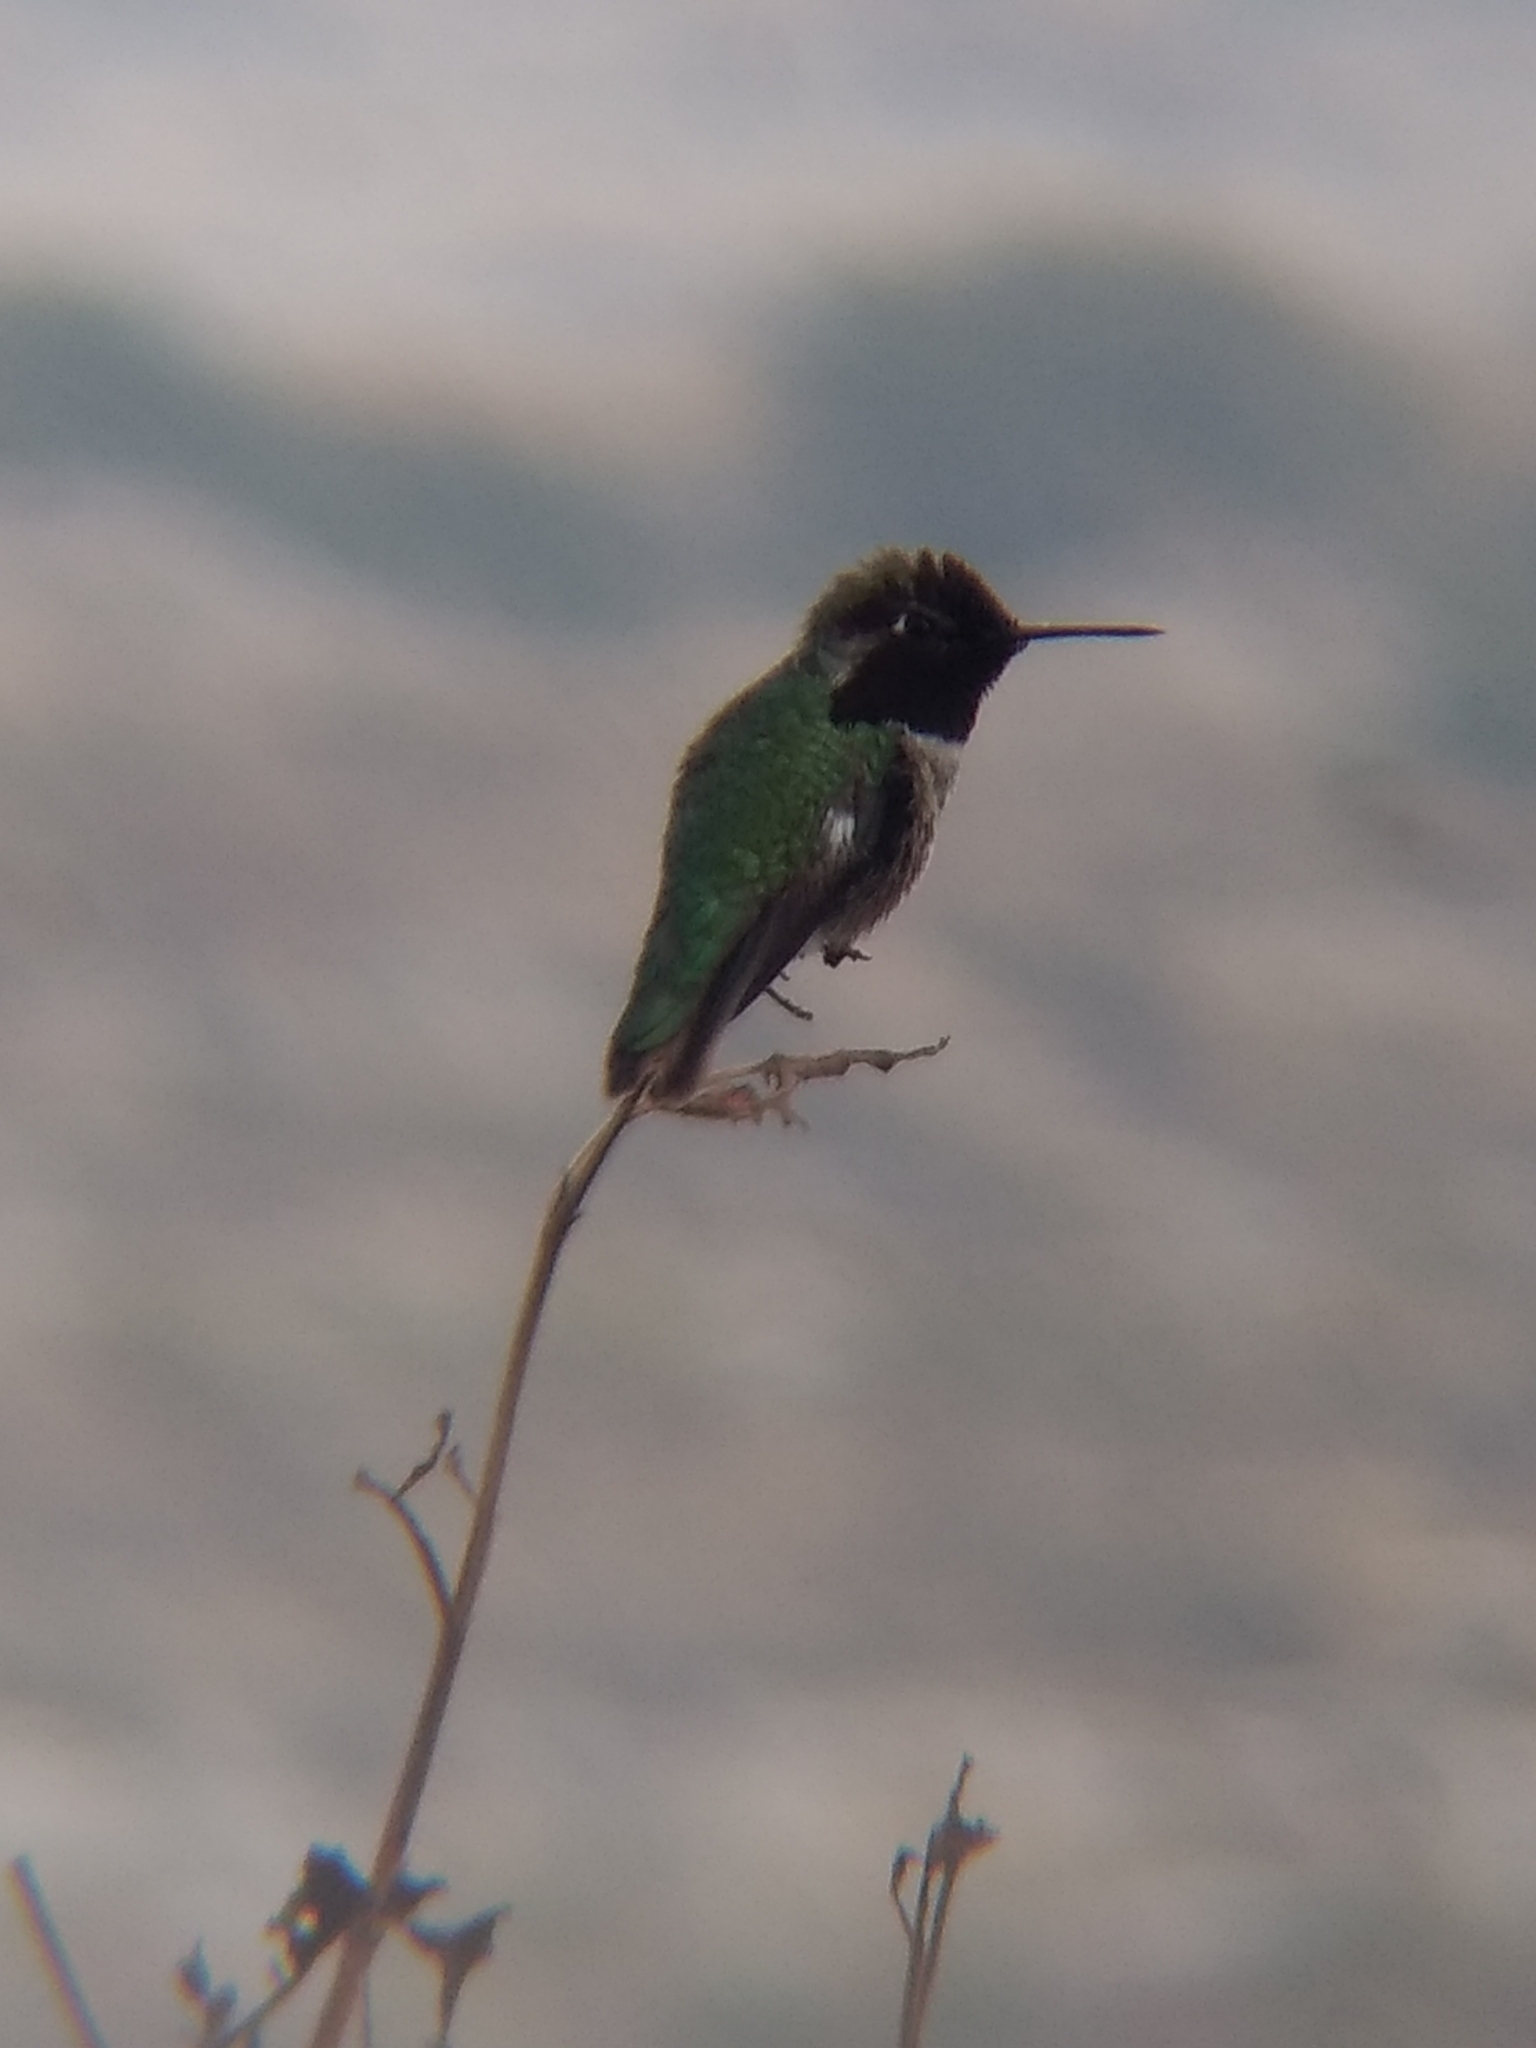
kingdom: Animalia
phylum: Chordata
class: Aves
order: Apodiformes
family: Trochilidae
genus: Calypte
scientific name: Calypte anna
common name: Anna's hummingbird
